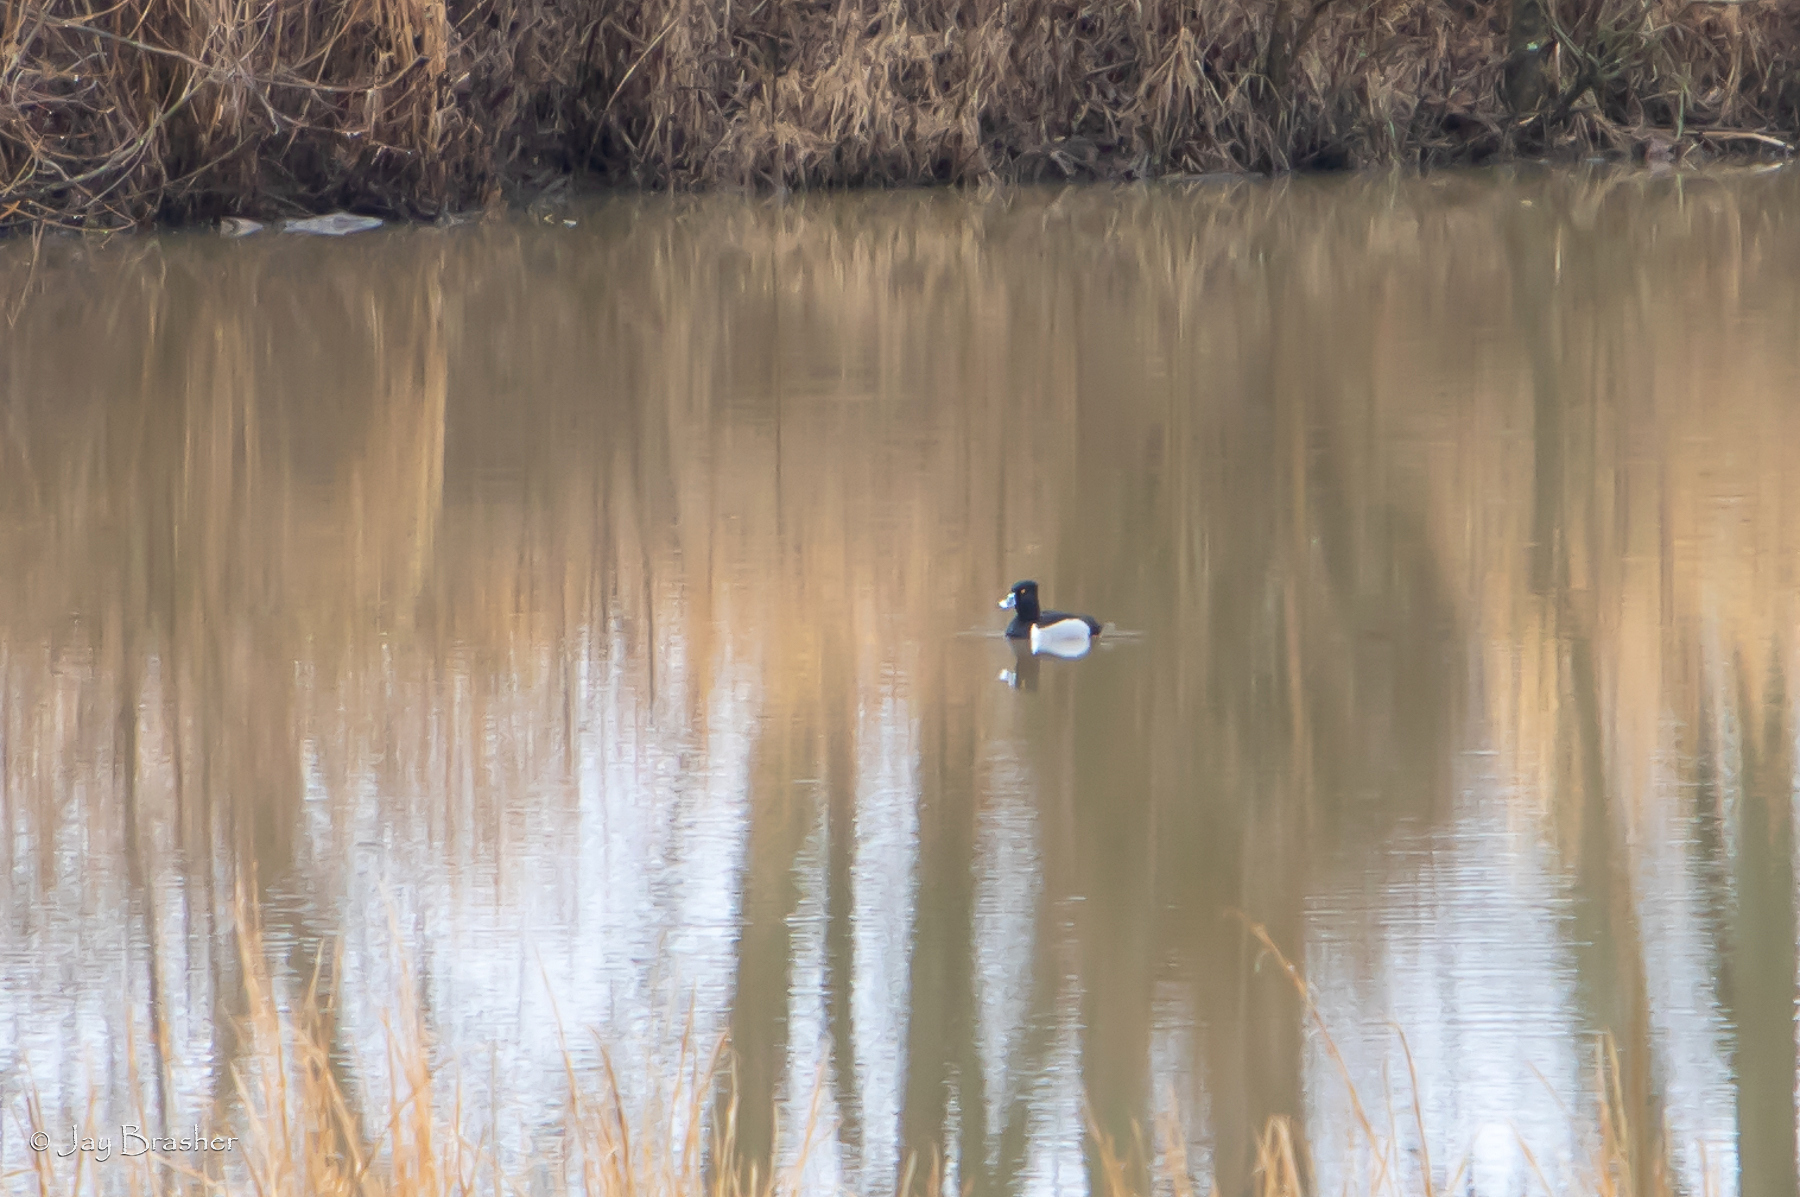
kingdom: Animalia
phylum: Chordata
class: Aves
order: Anseriformes
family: Anatidae
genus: Aythya
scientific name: Aythya collaris
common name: Ring-necked duck
